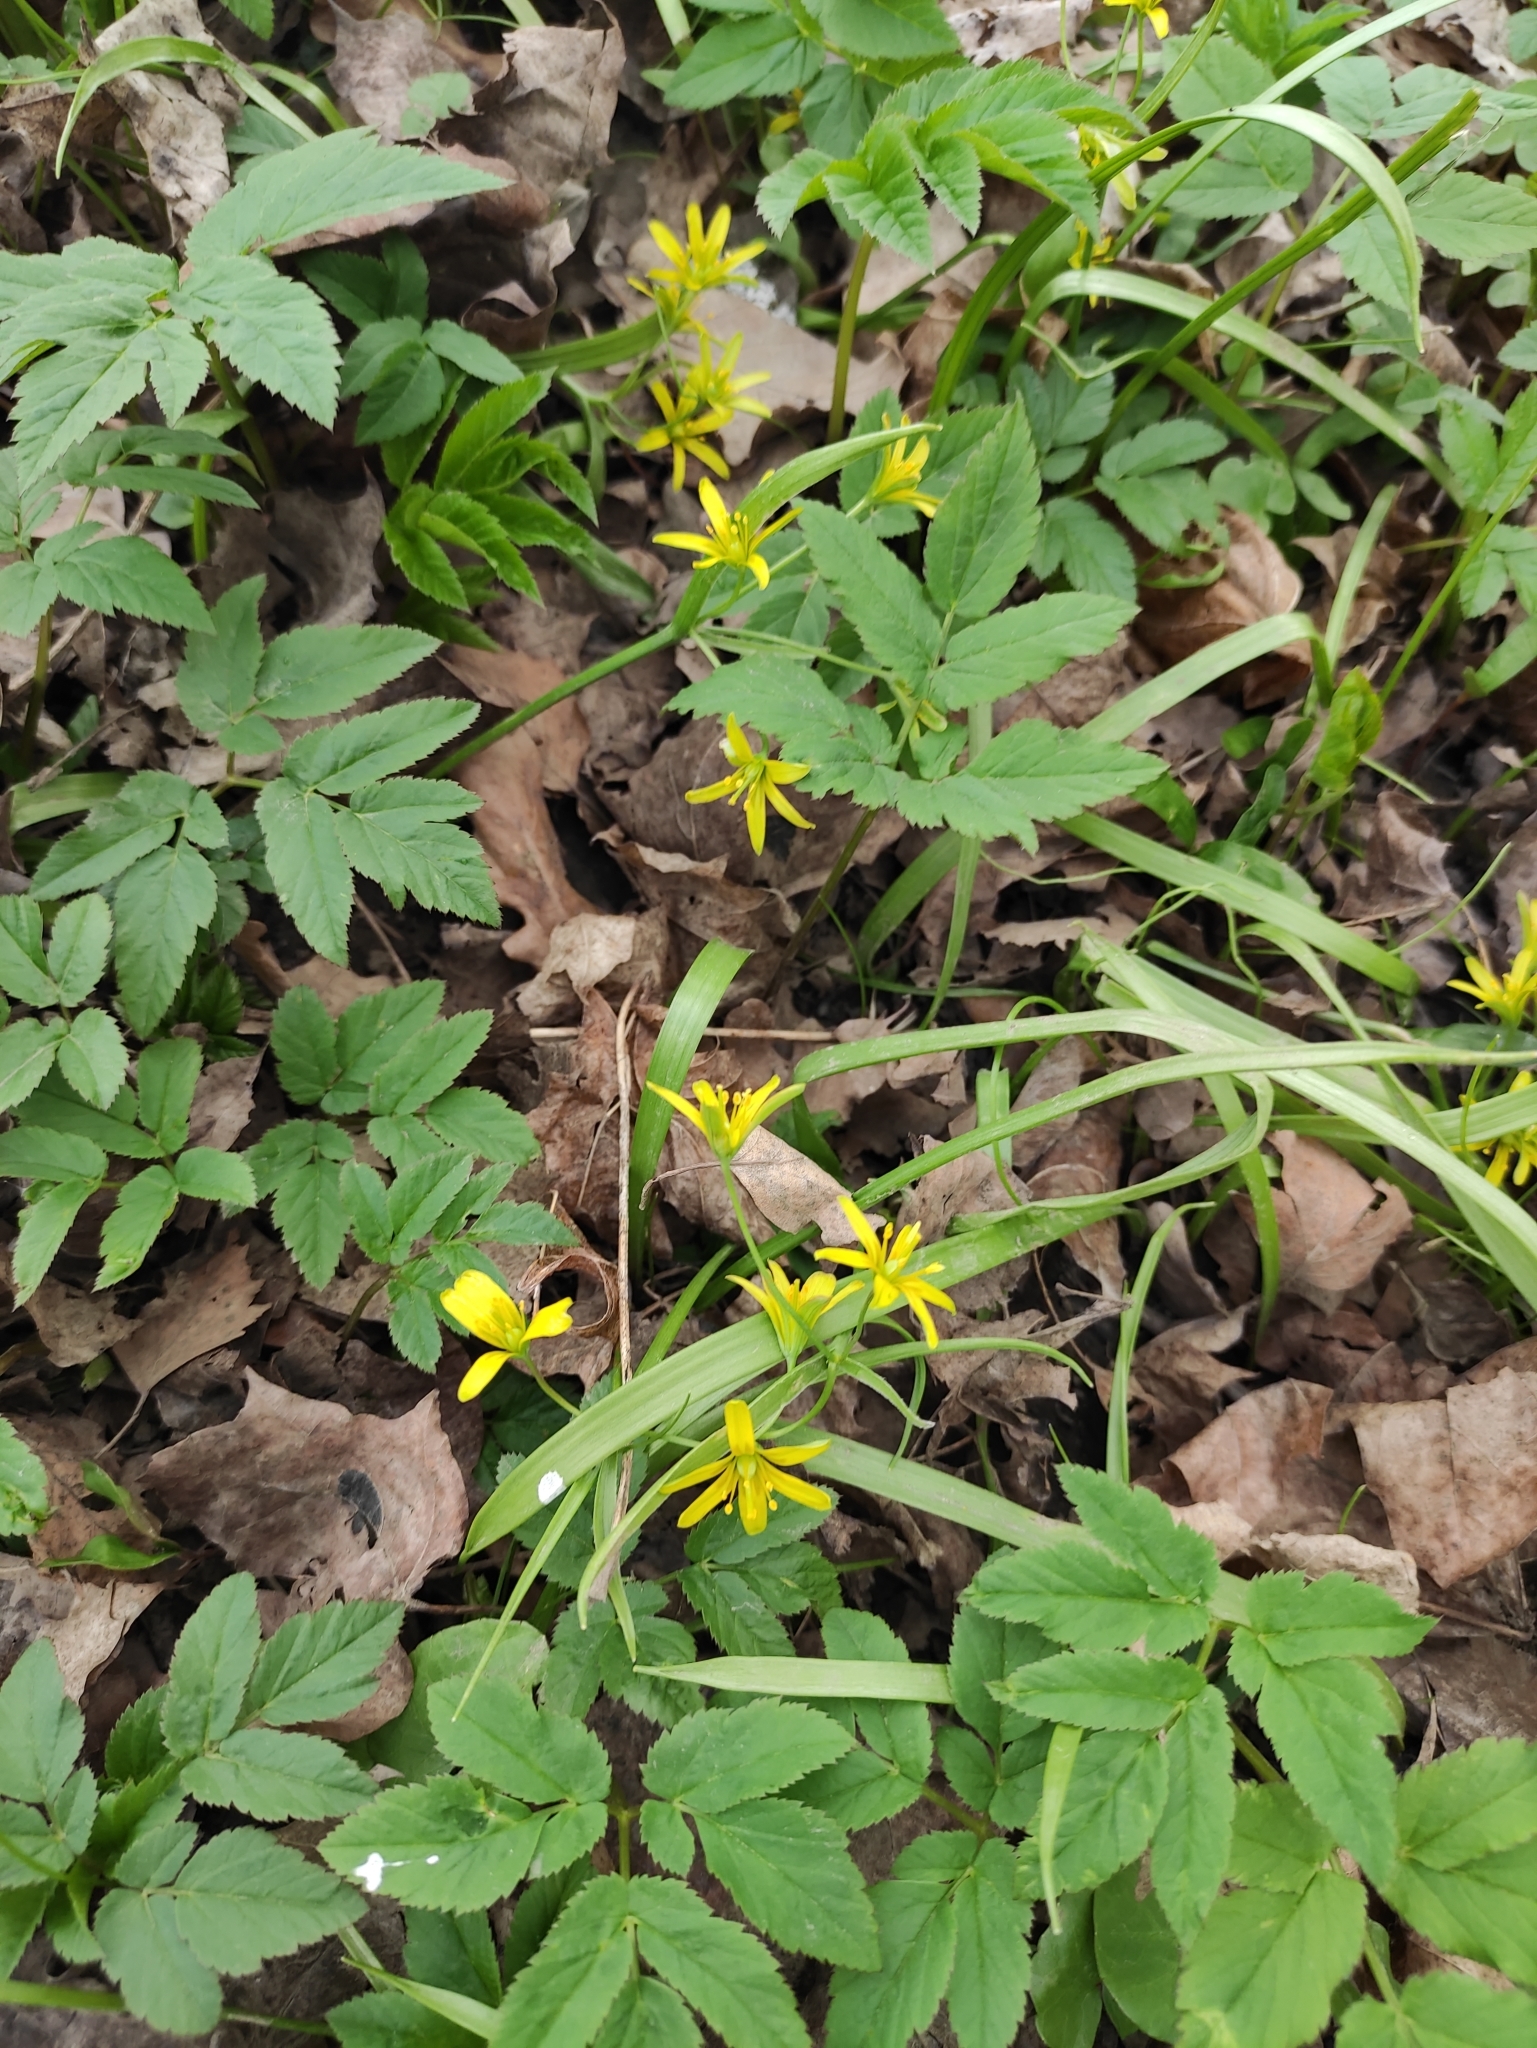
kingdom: Plantae
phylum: Tracheophyta
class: Liliopsida
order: Liliales
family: Liliaceae
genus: Gagea
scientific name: Gagea lutea
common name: Yellow star-of-bethlehem
